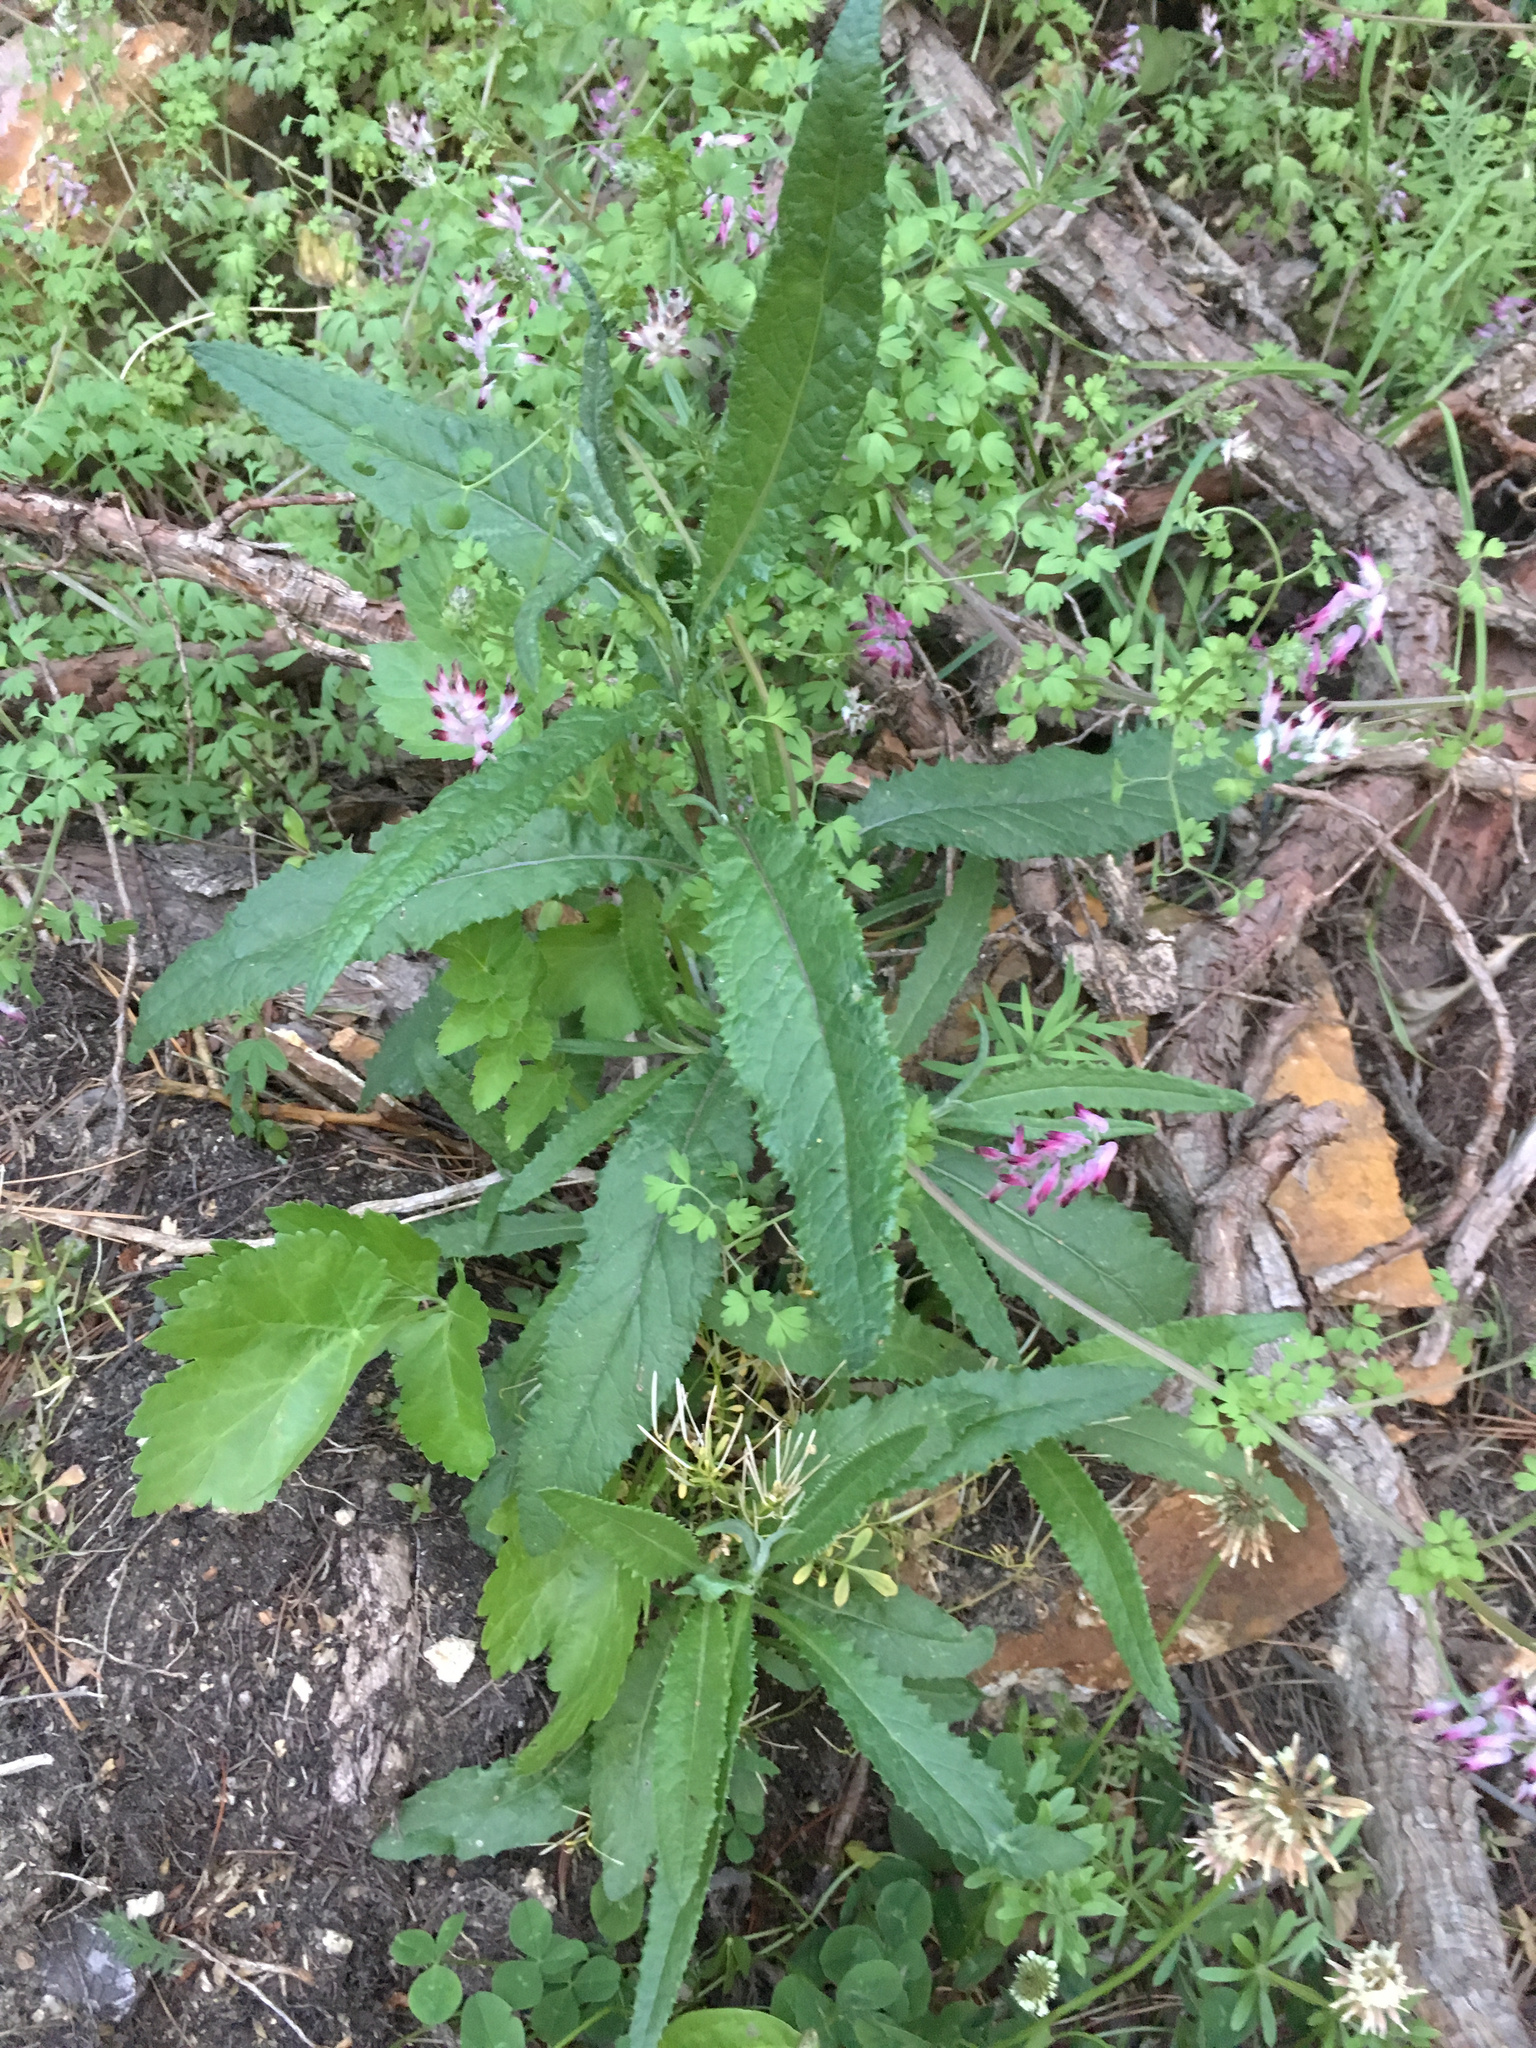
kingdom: Plantae
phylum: Tracheophyta
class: Magnoliopsida
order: Asterales
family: Asteraceae
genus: Senecio
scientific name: Senecio minimus
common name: Toothed fireweed
